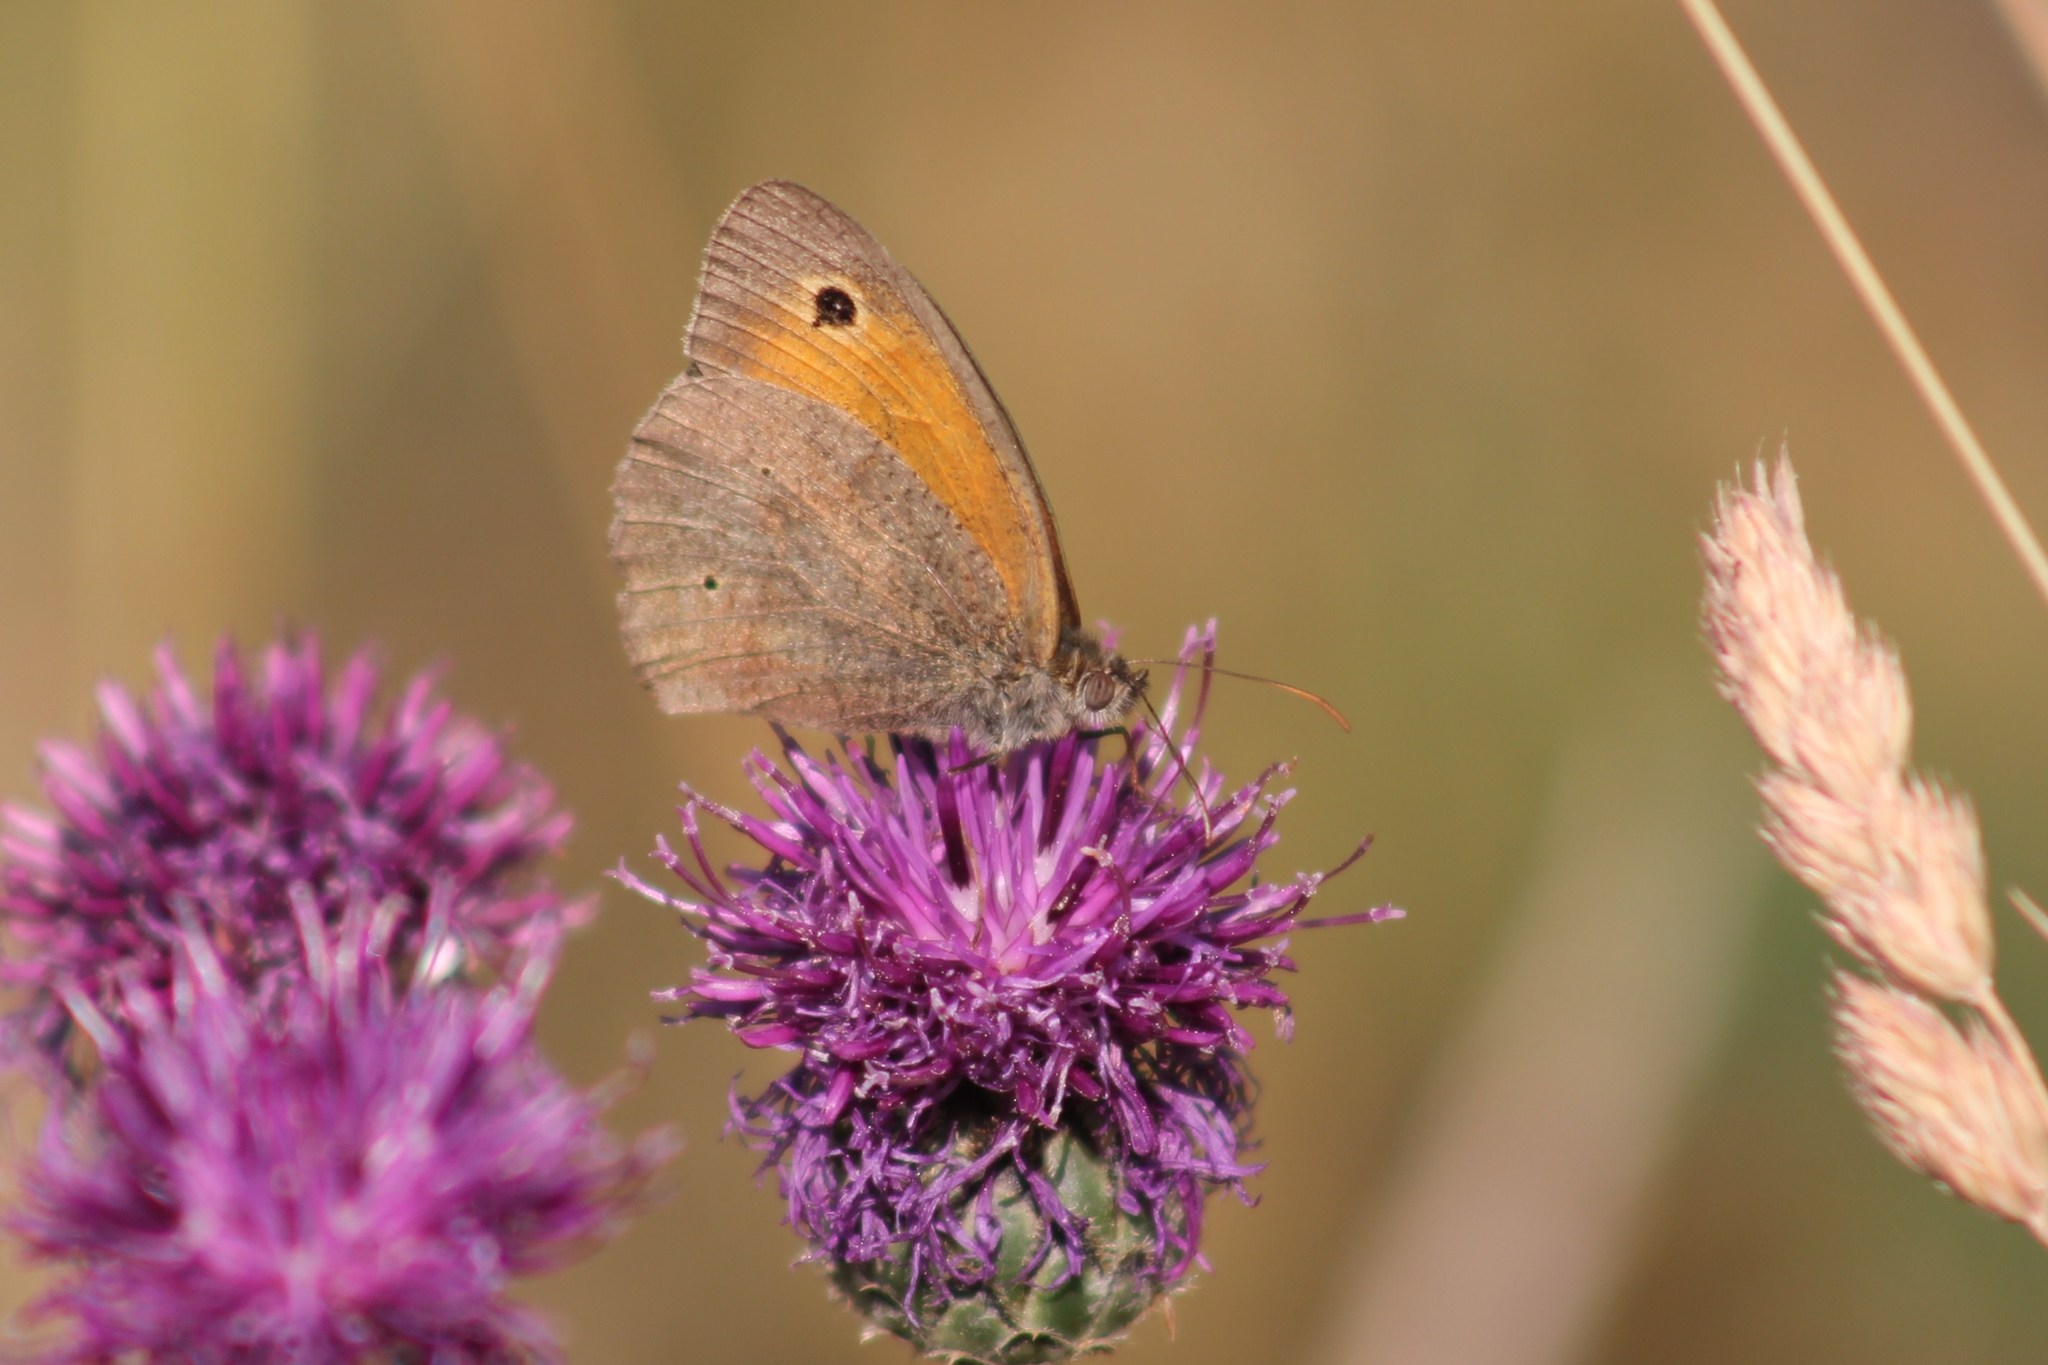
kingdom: Animalia
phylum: Arthropoda
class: Insecta
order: Lepidoptera
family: Nymphalidae
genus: Maniola
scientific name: Maniola jurtina
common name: Meadow brown
